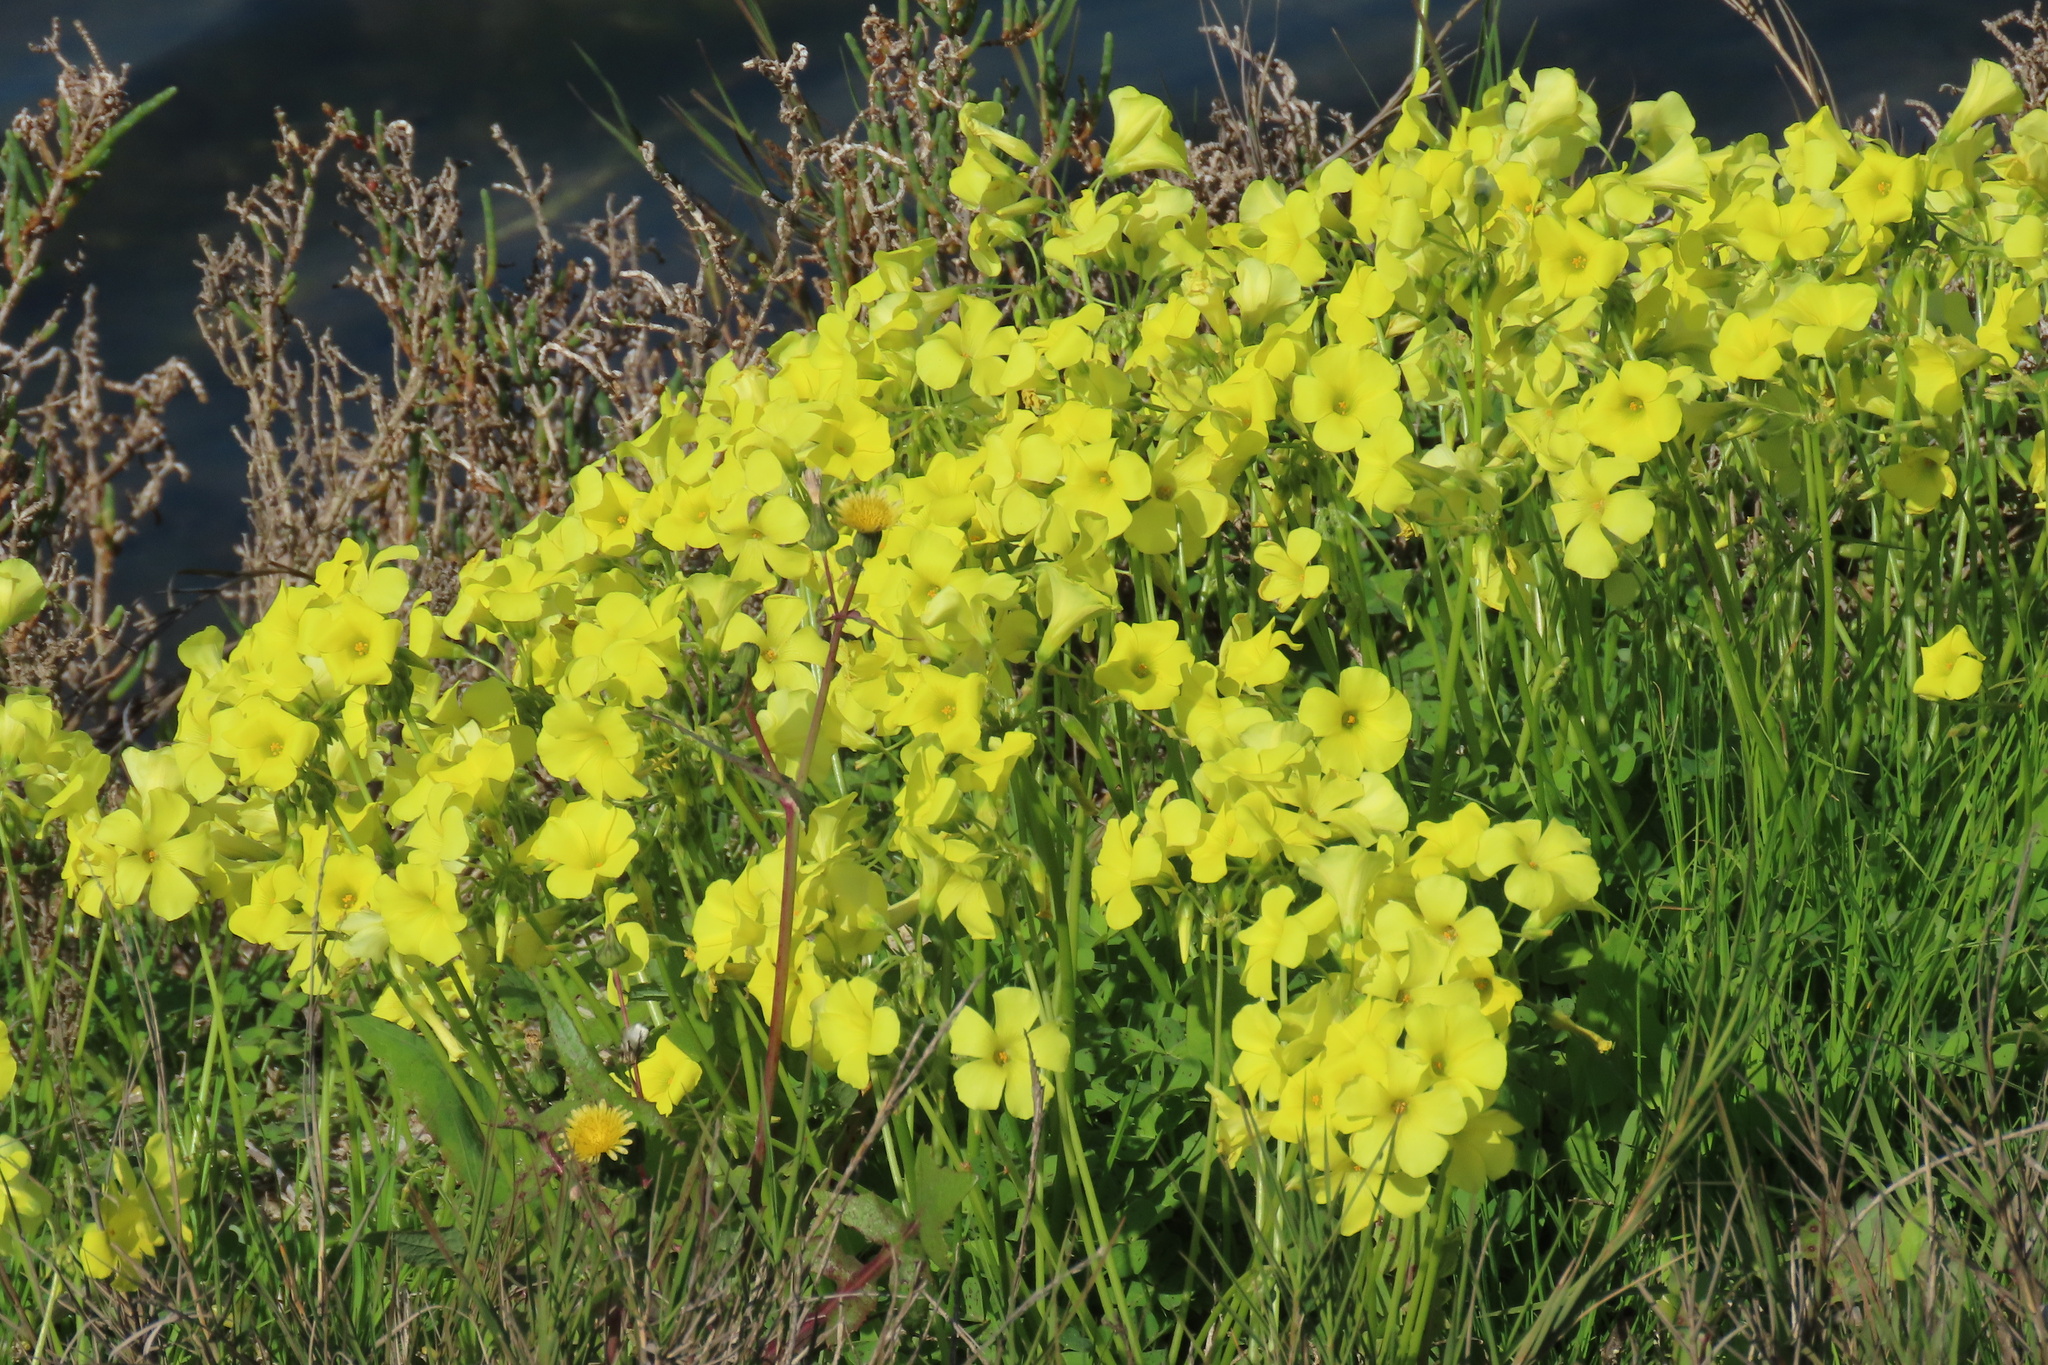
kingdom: Plantae
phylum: Tracheophyta
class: Magnoliopsida
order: Oxalidales
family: Oxalidaceae
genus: Oxalis
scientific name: Oxalis pes-caprae
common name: Bermuda-buttercup
